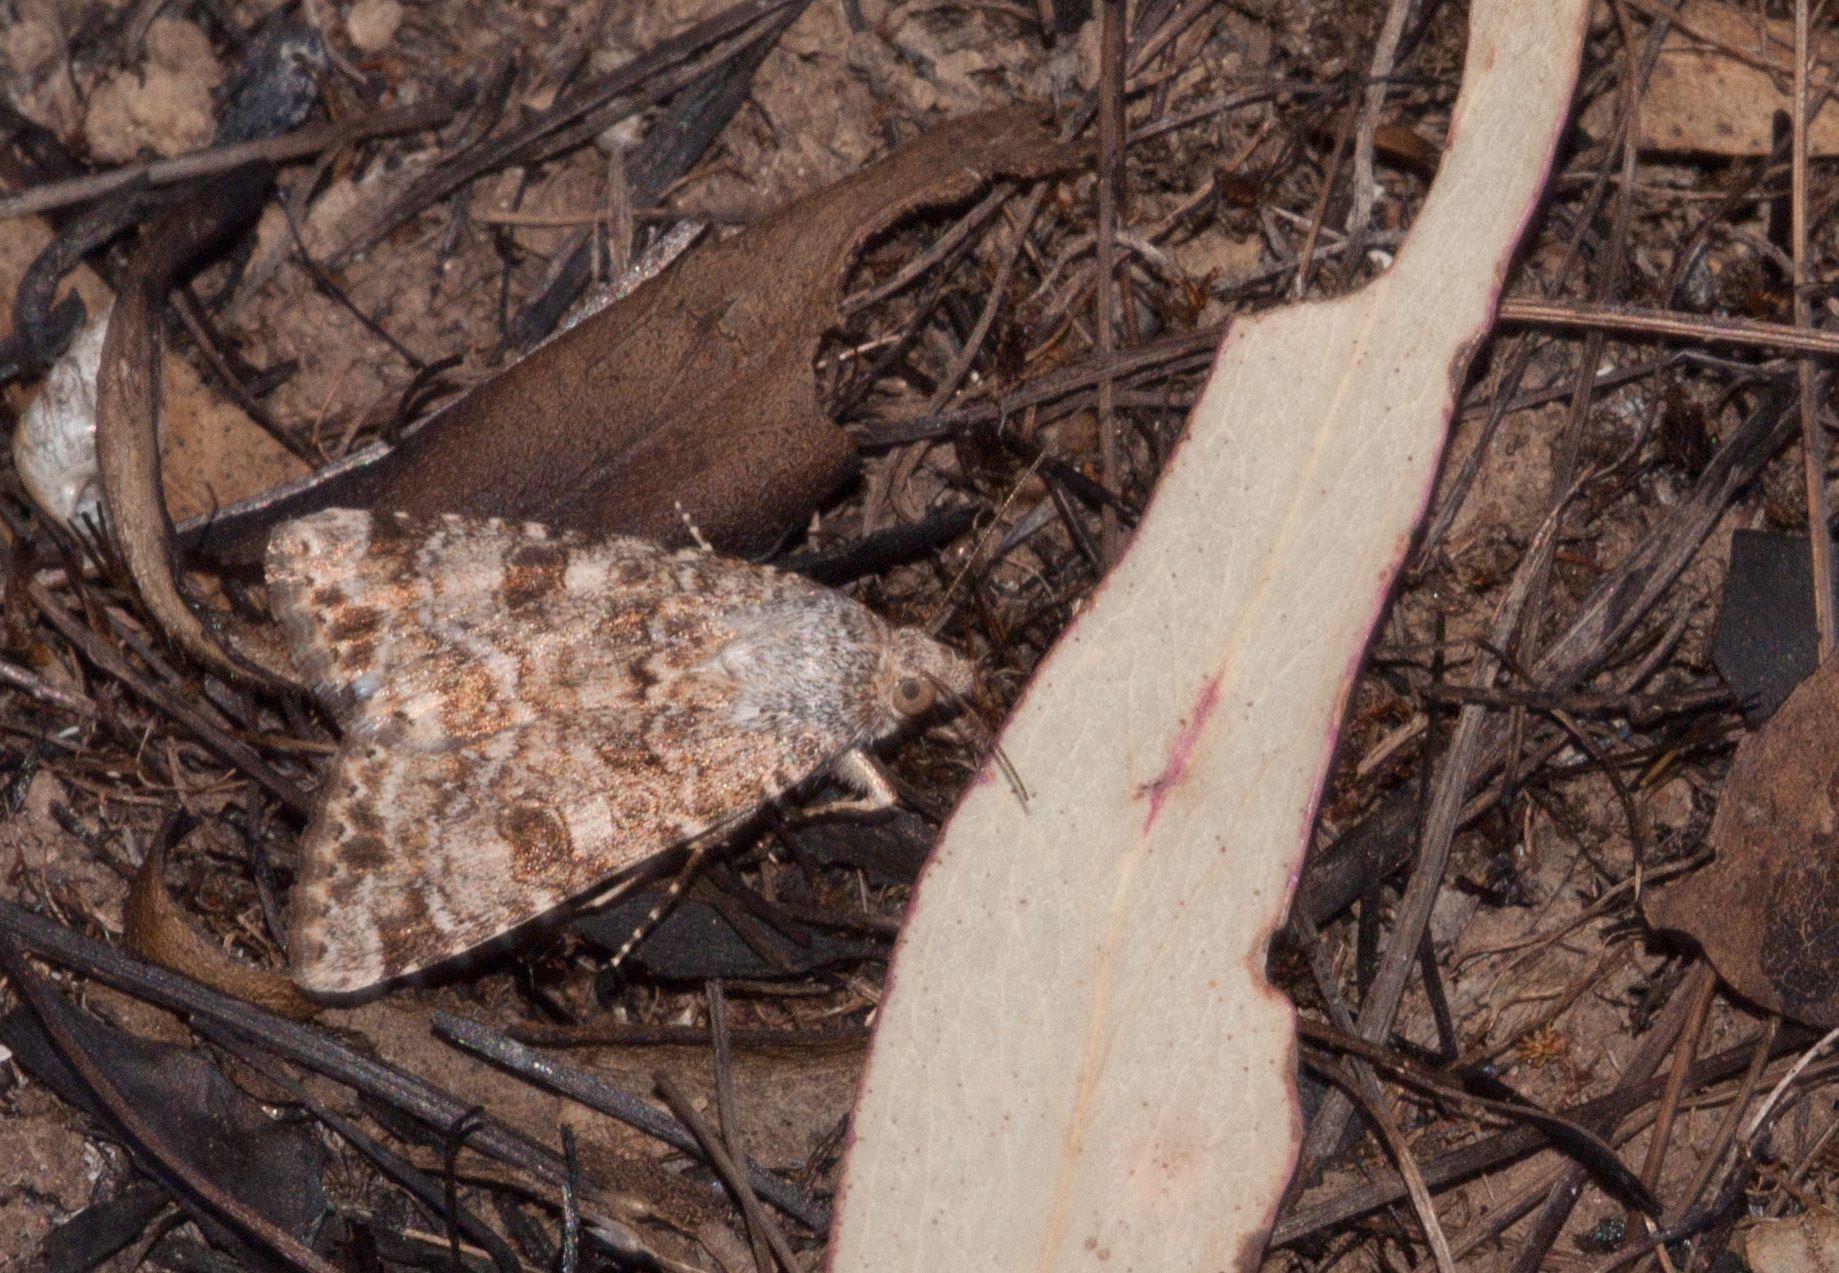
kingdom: Animalia
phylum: Arthropoda
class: Insecta
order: Lepidoptera
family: Noctuidae
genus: Heliothis
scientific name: Heliothis punctifera
